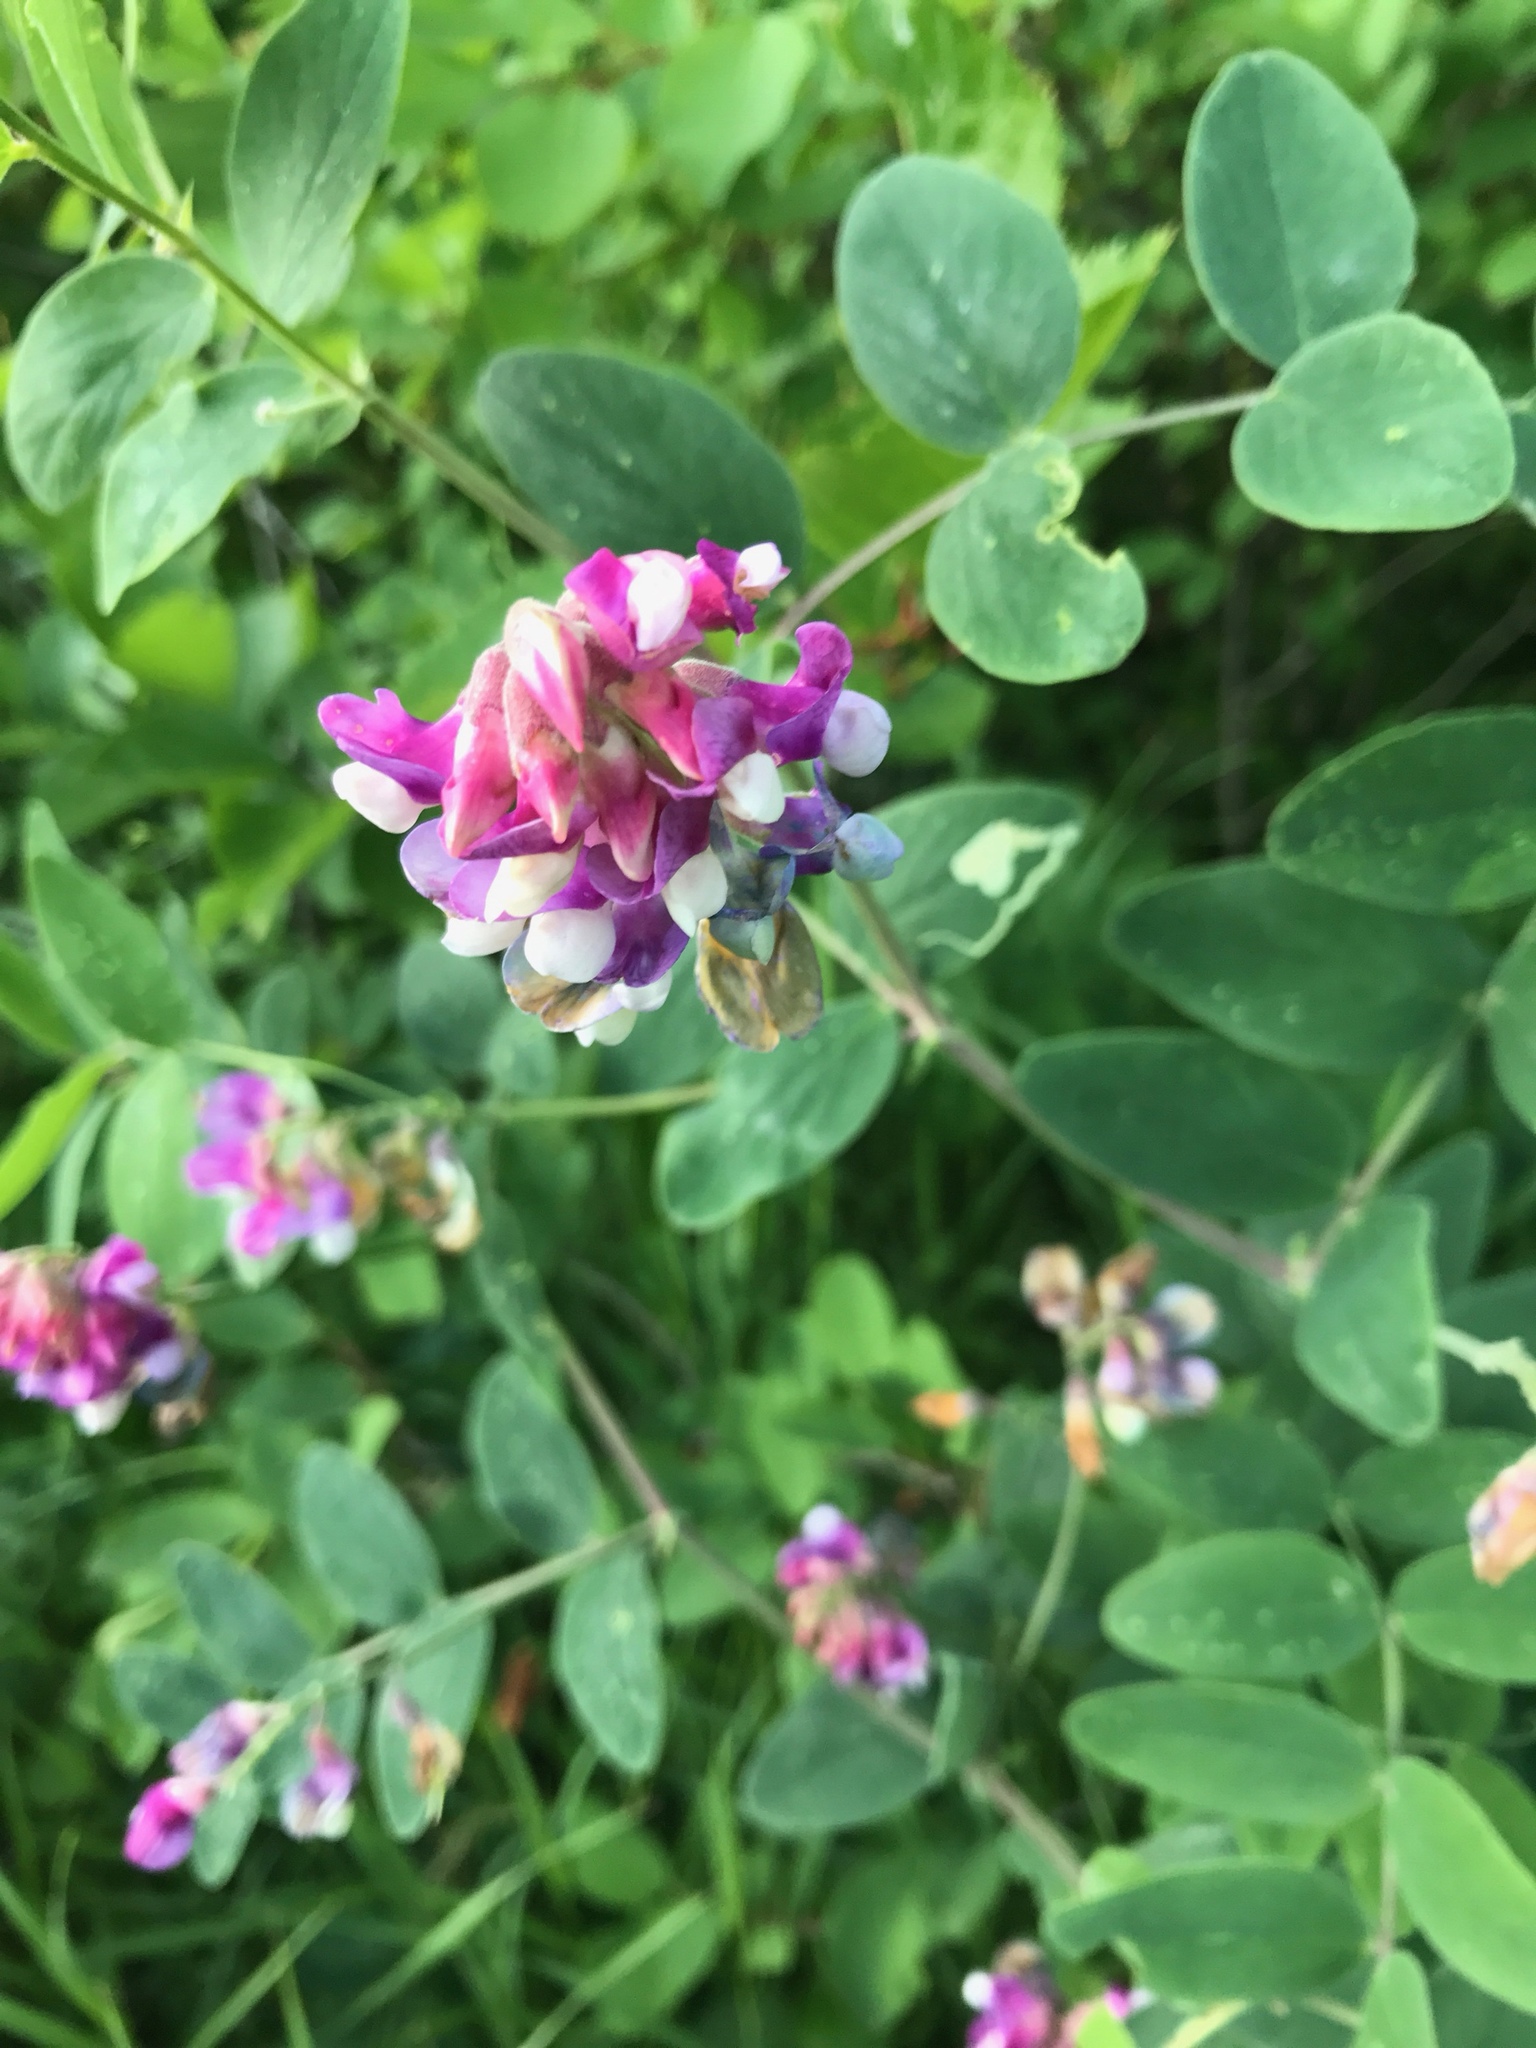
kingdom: Plantae
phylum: Tracheophyta
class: Magnoliopsida
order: Fabales
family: Fabaceae
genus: Lathyrus
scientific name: Lathyrus venosus
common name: Forest-pea
